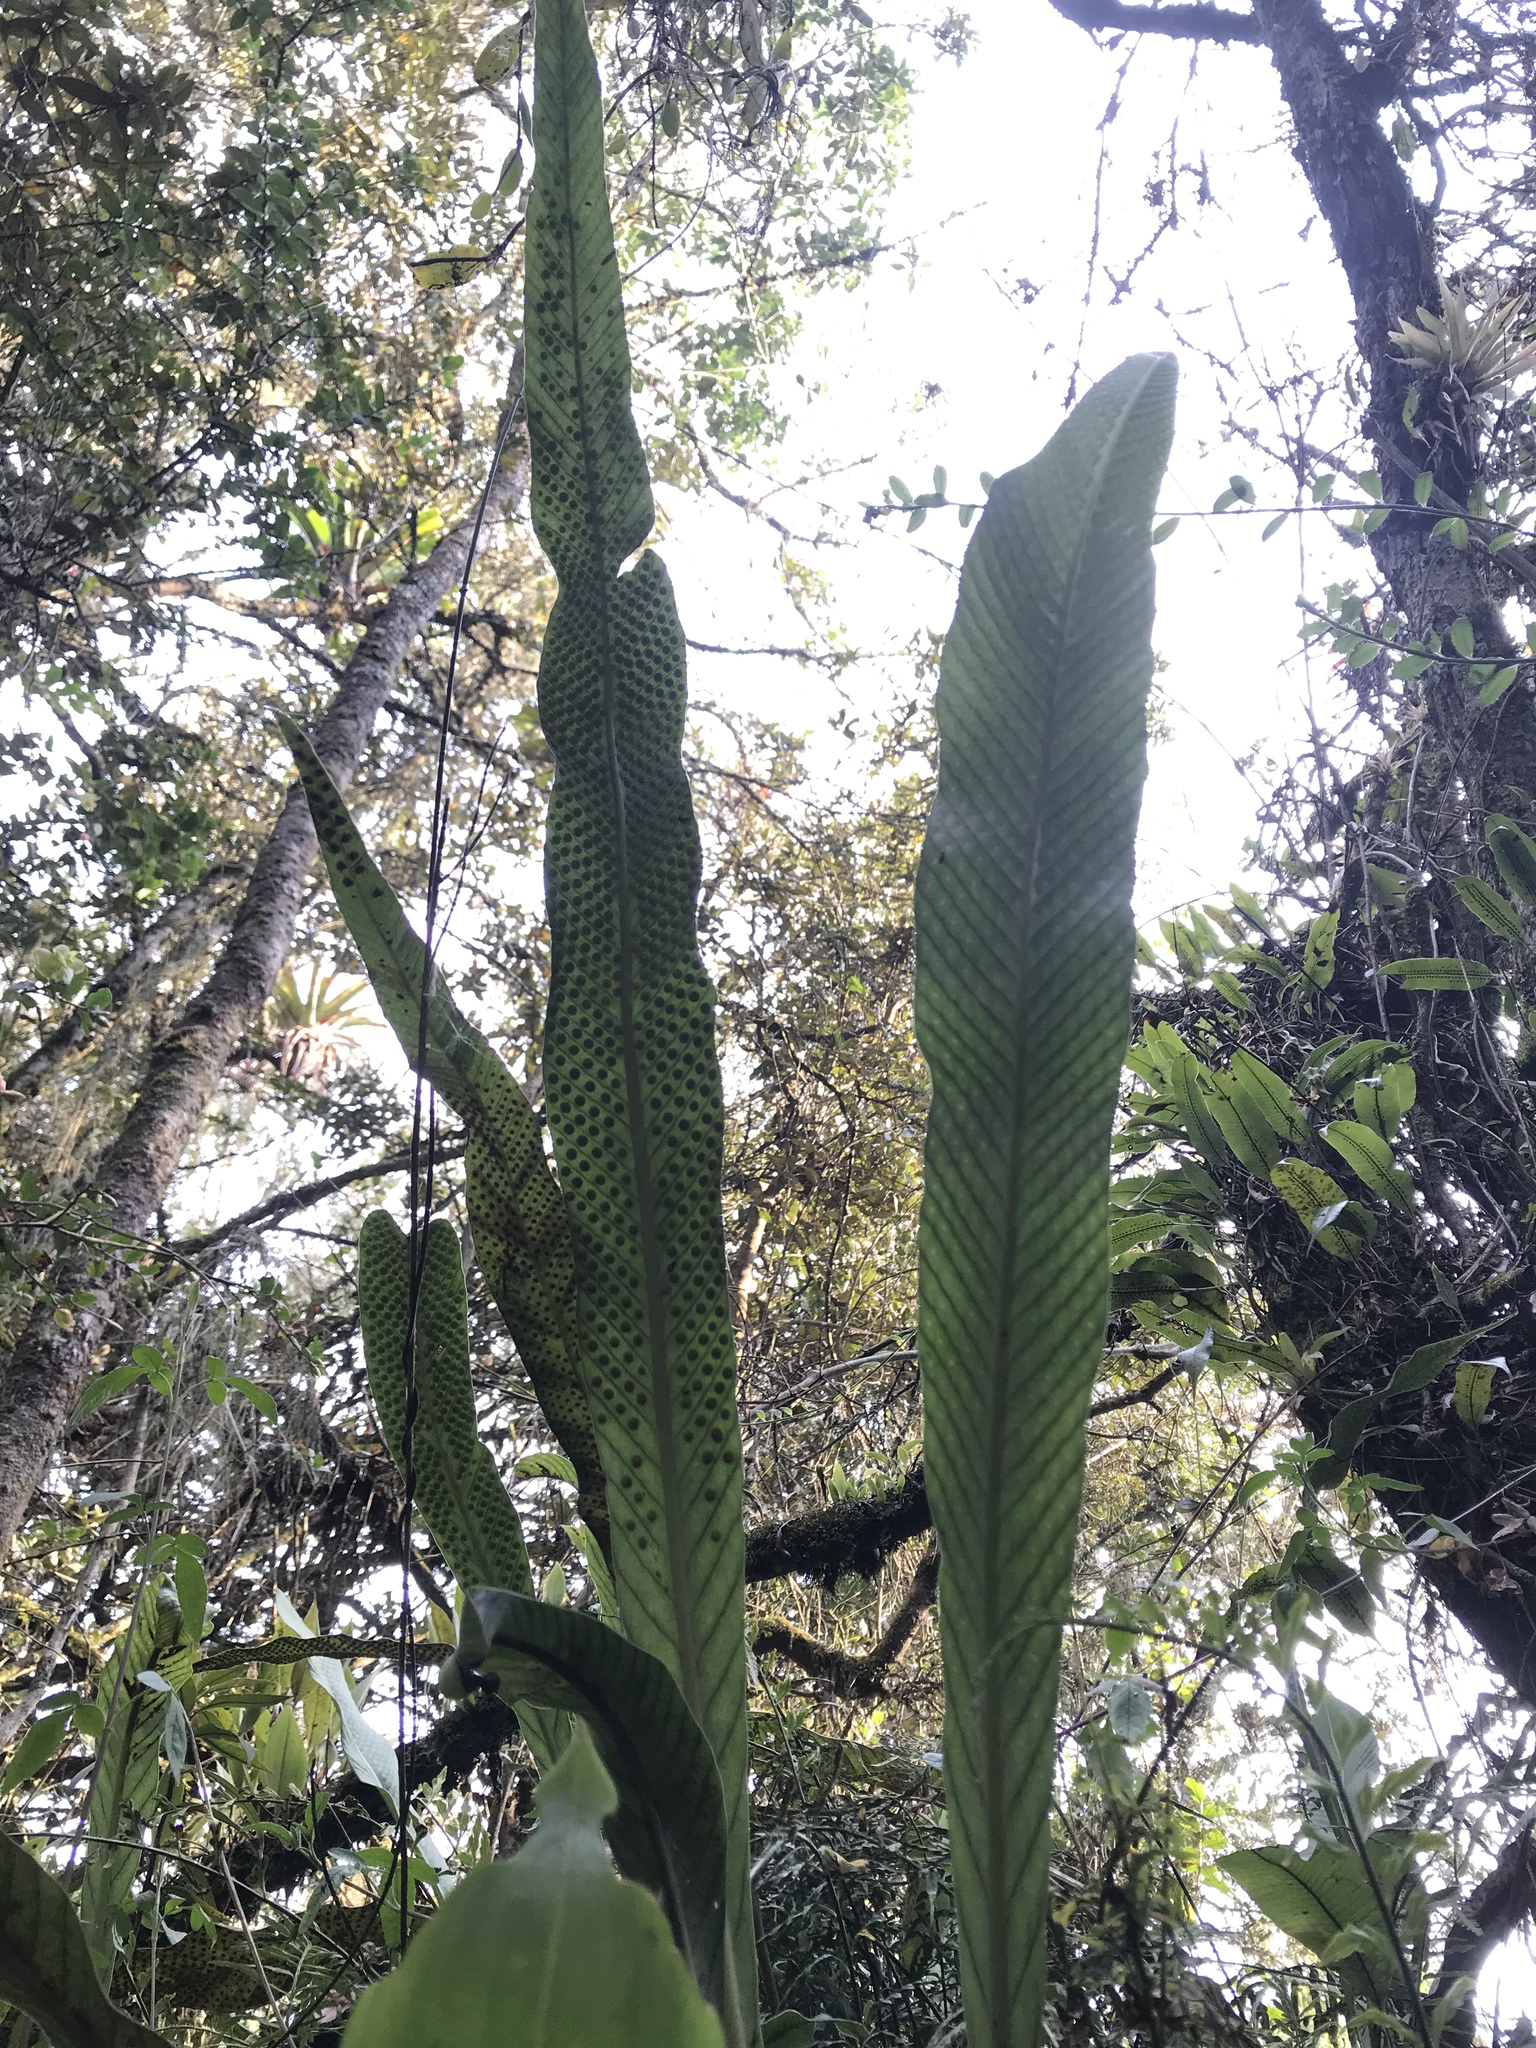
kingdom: Plantae
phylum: Tracheophyta
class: Polypodiopsida
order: Polypodiales
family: Polypodiaceae
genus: Niphidium
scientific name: Niphidium crassifolium
